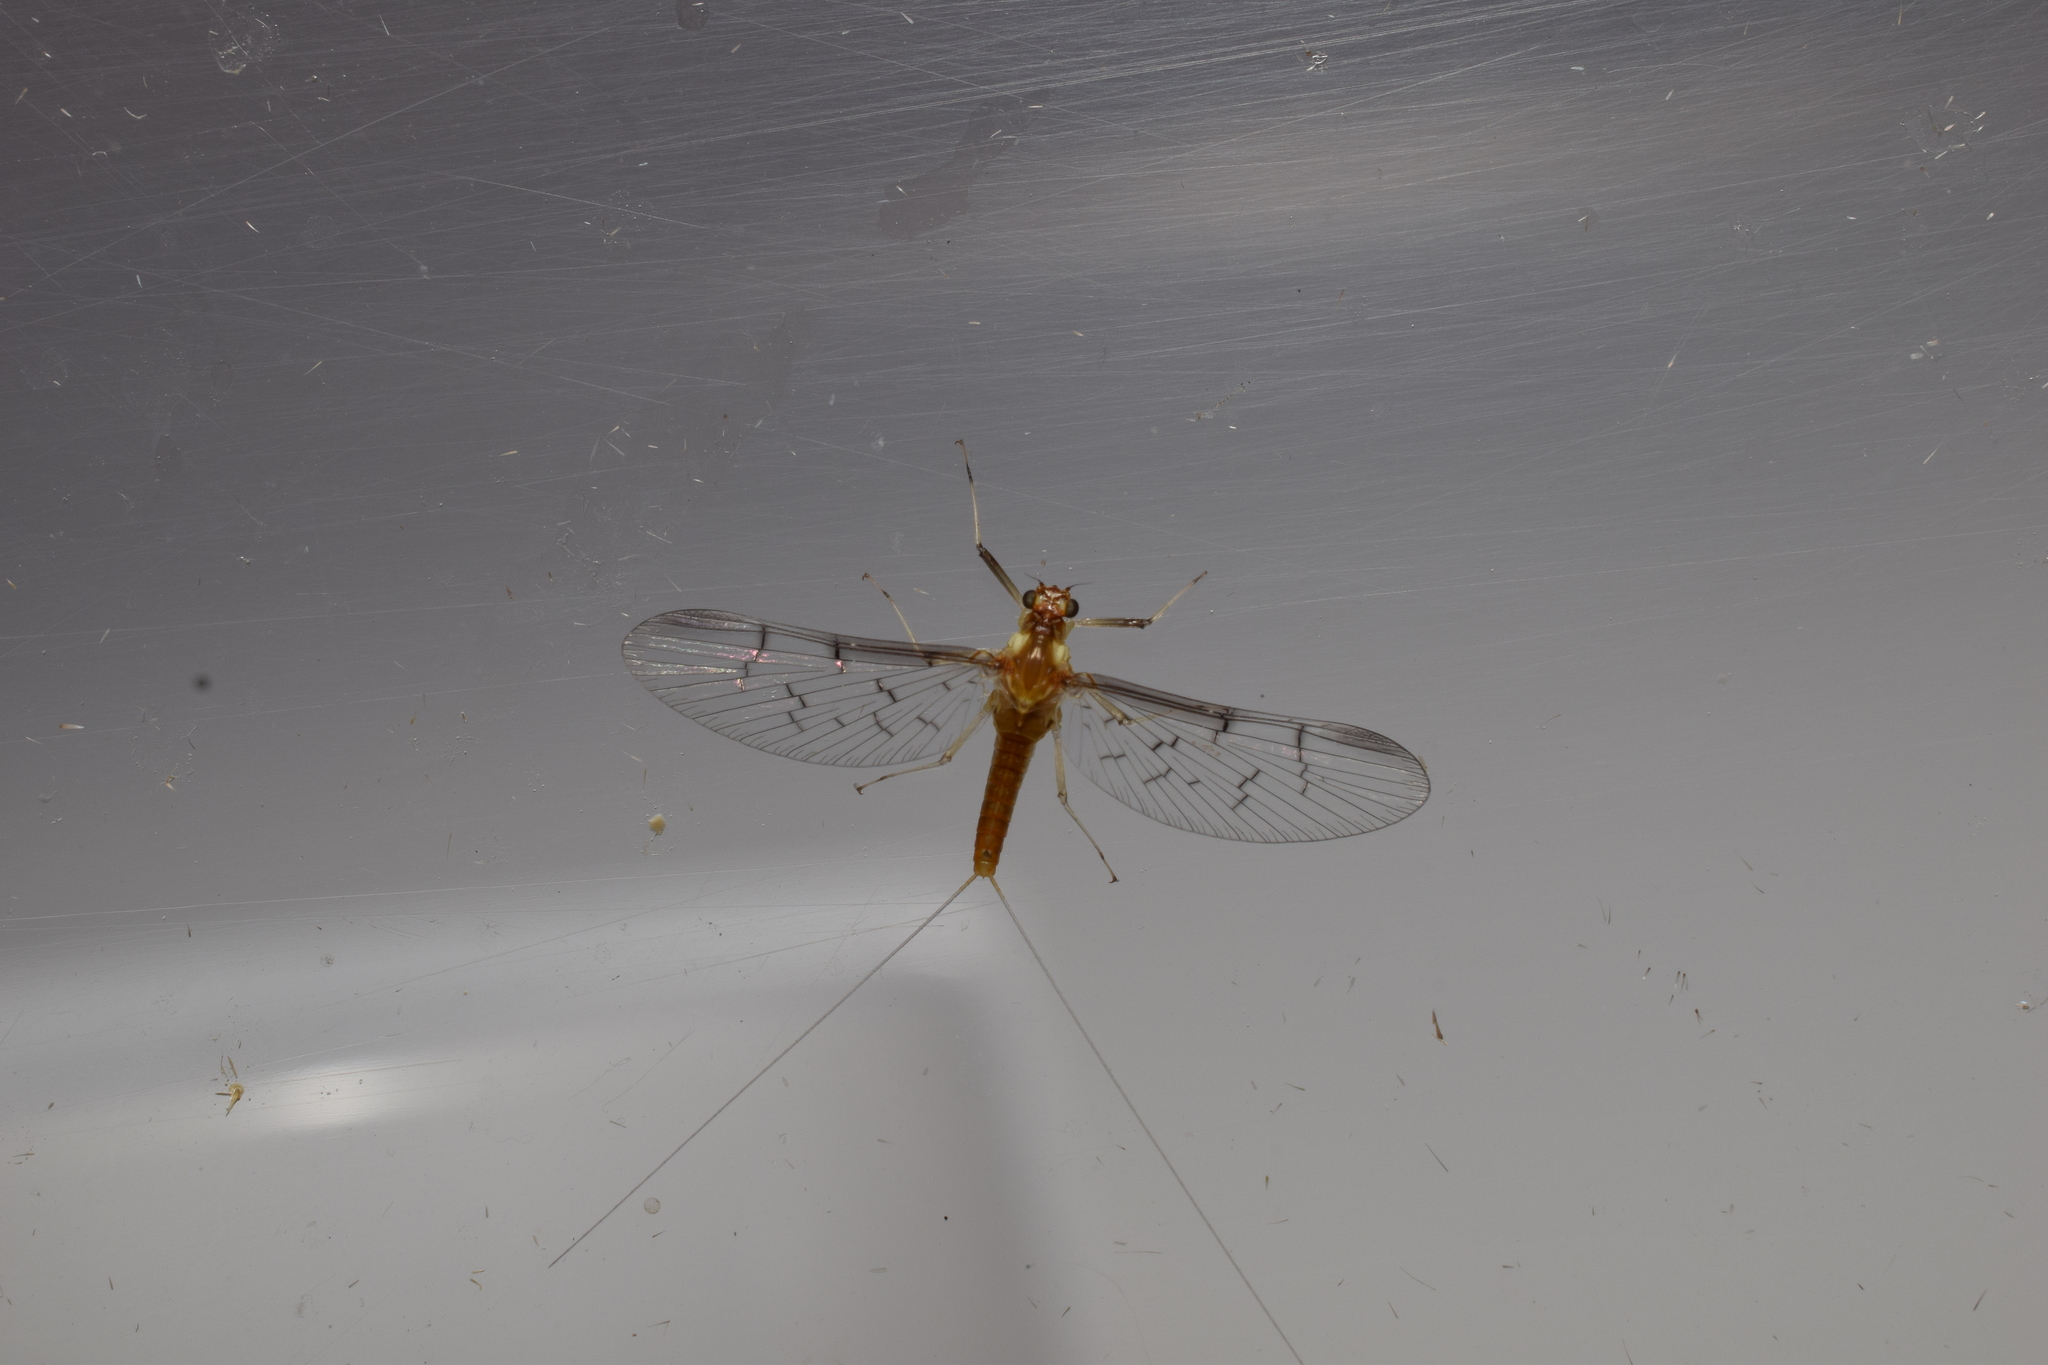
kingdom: Animalia
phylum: Arthropoda
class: Insecta
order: Ephemeroptera
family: Baetidae
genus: Baetiella
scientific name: Baetiella japonica
